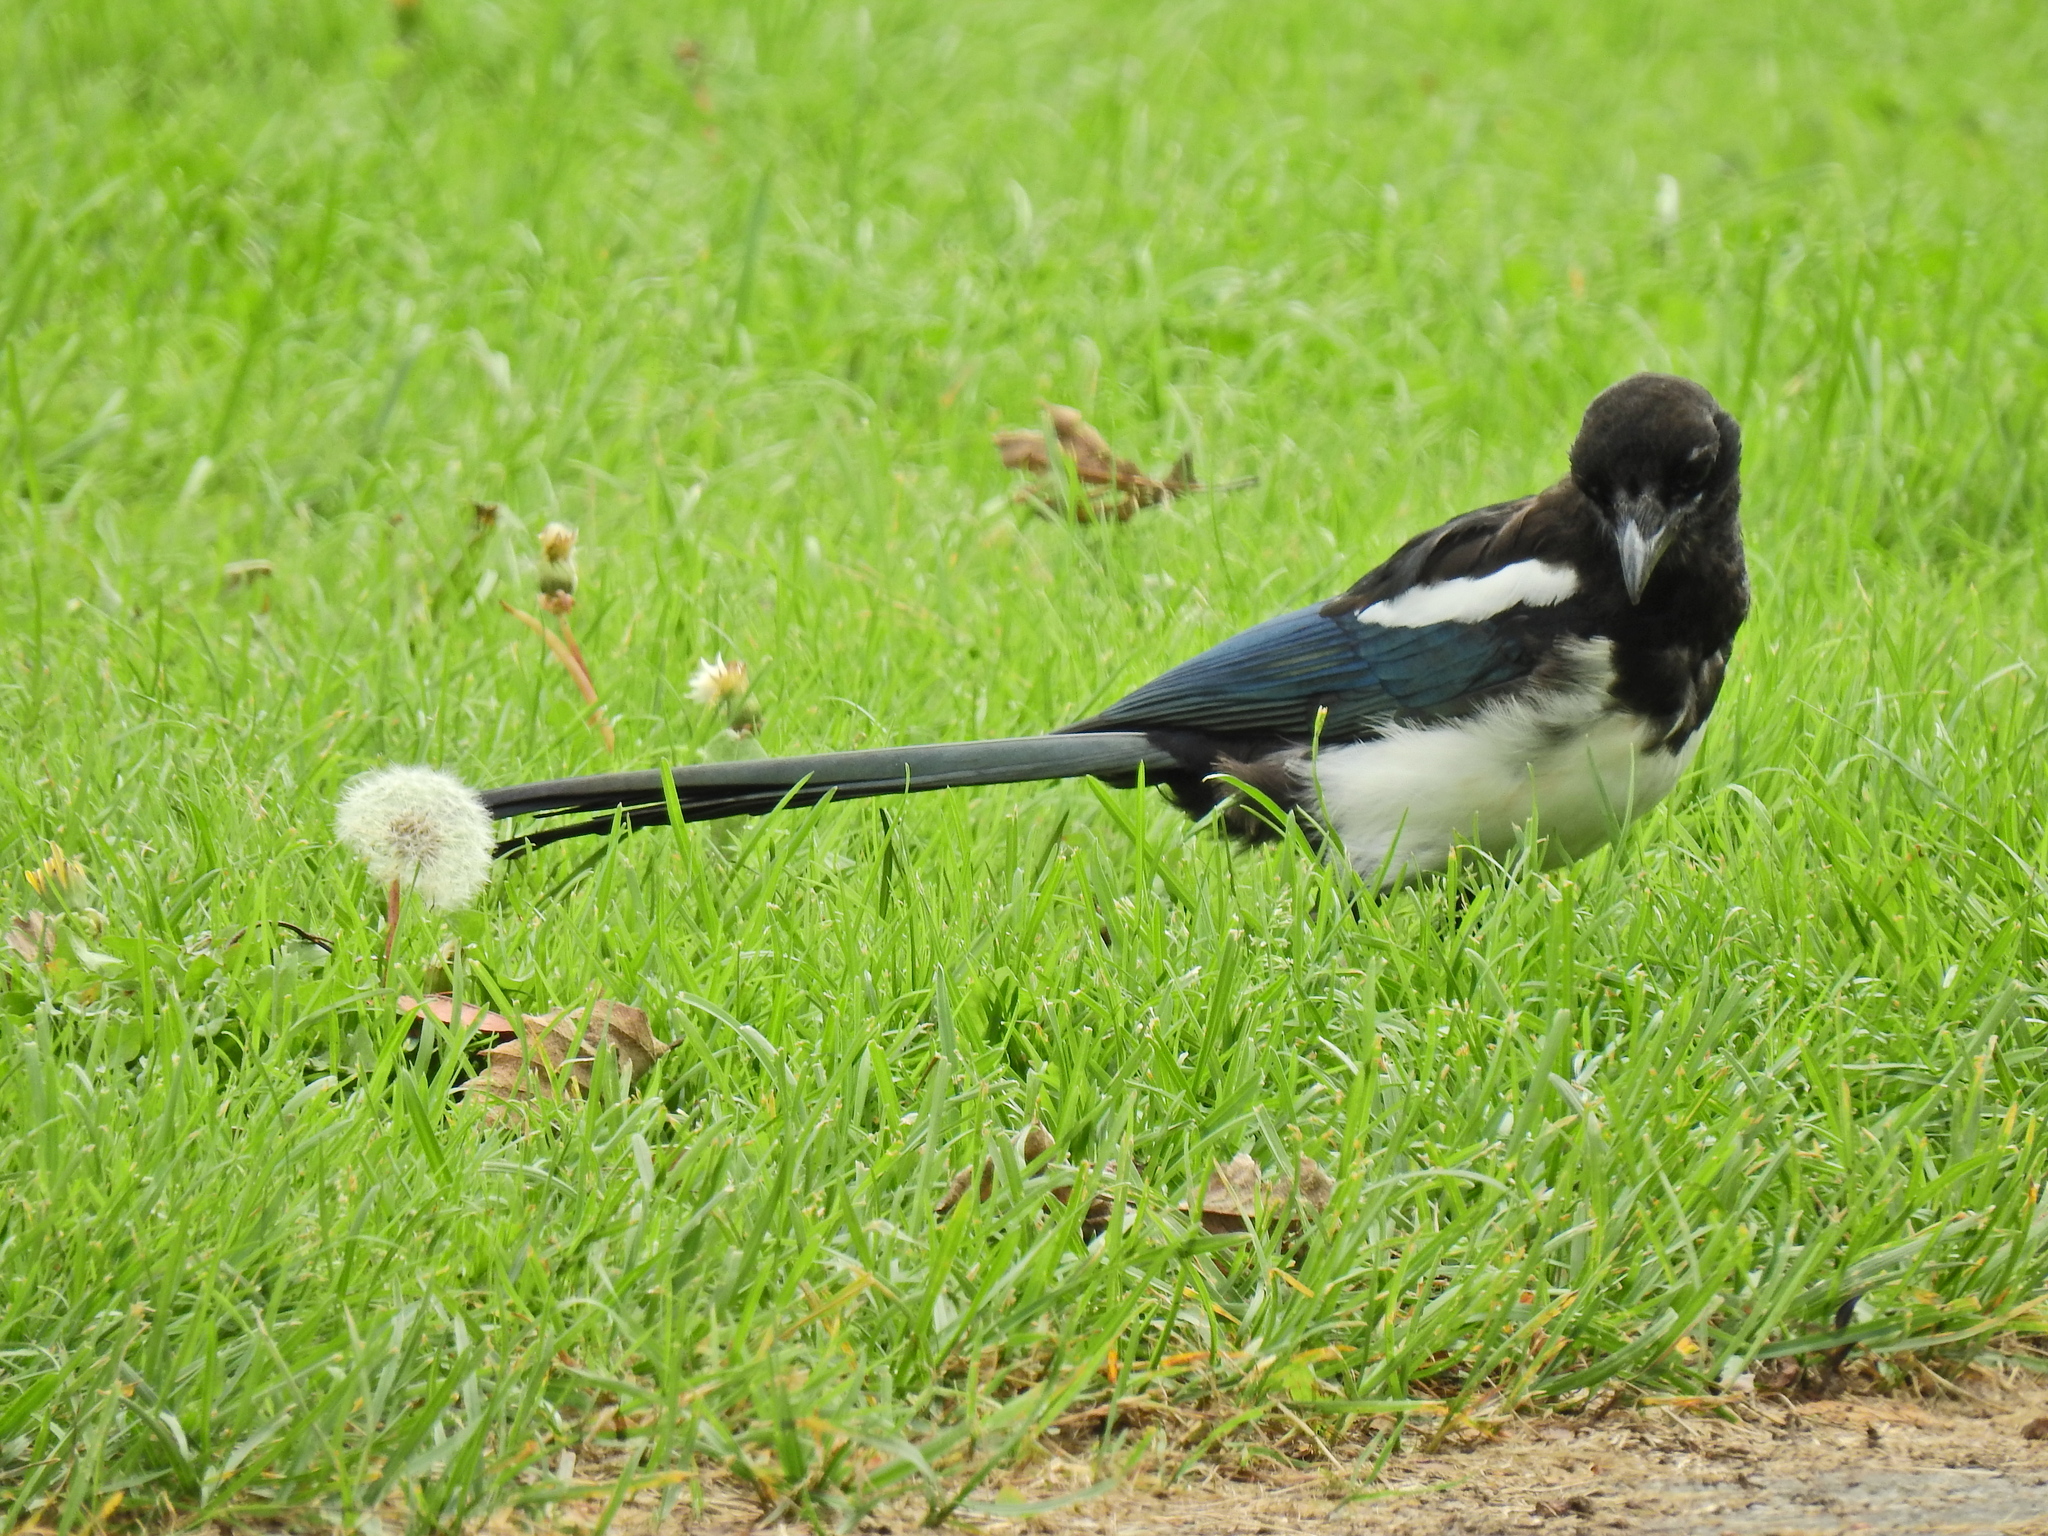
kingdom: Animalia
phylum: Chordata
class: Aves
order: Passeriformes
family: Corvidae
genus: Pica
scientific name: Pica pica
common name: Eurasian magpie
